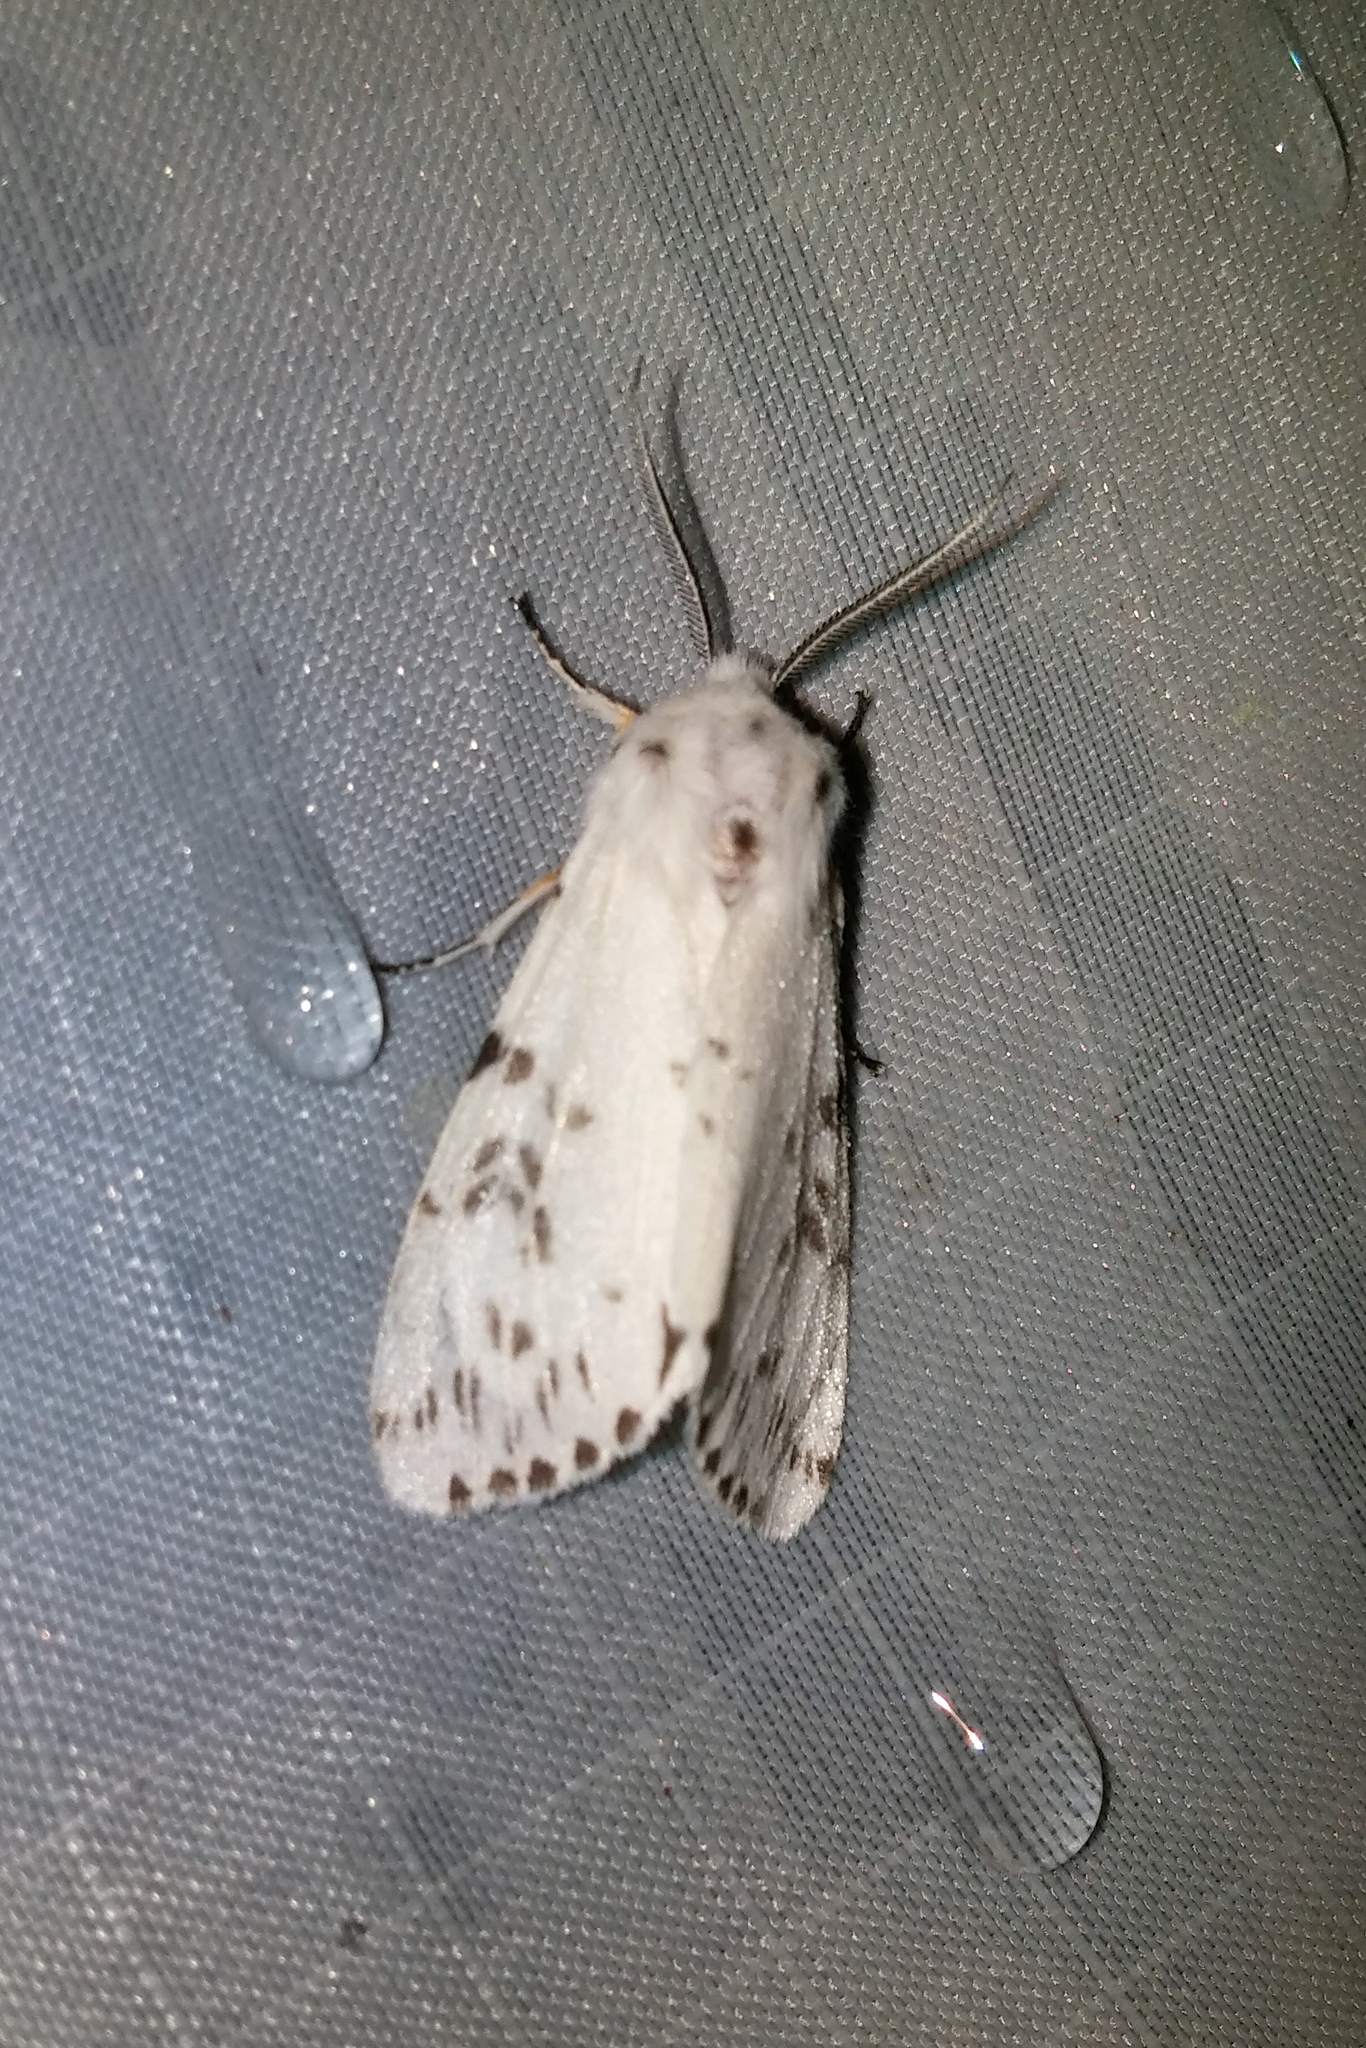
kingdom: Animalia
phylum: Arthropoda
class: Insecta
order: Lepidoptera
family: Erebidae
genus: Hyphantria
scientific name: Hyphantria cunea
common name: American white moth
